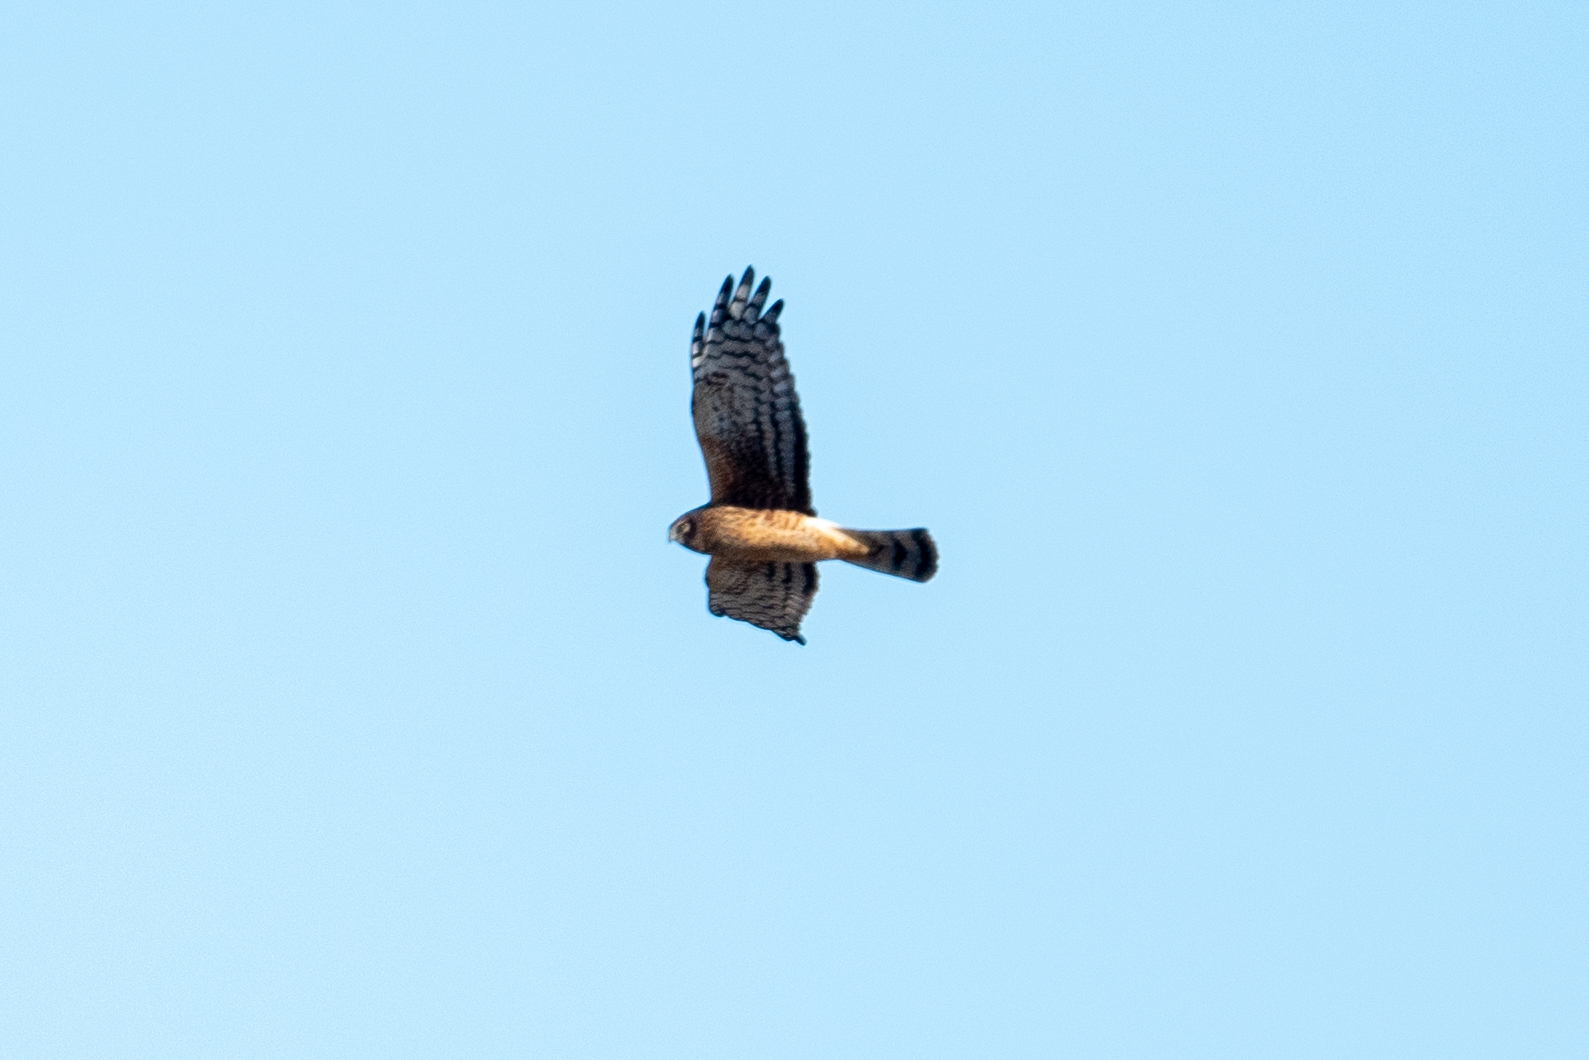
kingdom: Animalia
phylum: Chordata
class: Aves
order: Accipitriformes
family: Accipitridae
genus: Circus
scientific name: Circus cyaneus
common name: Hen harrier
